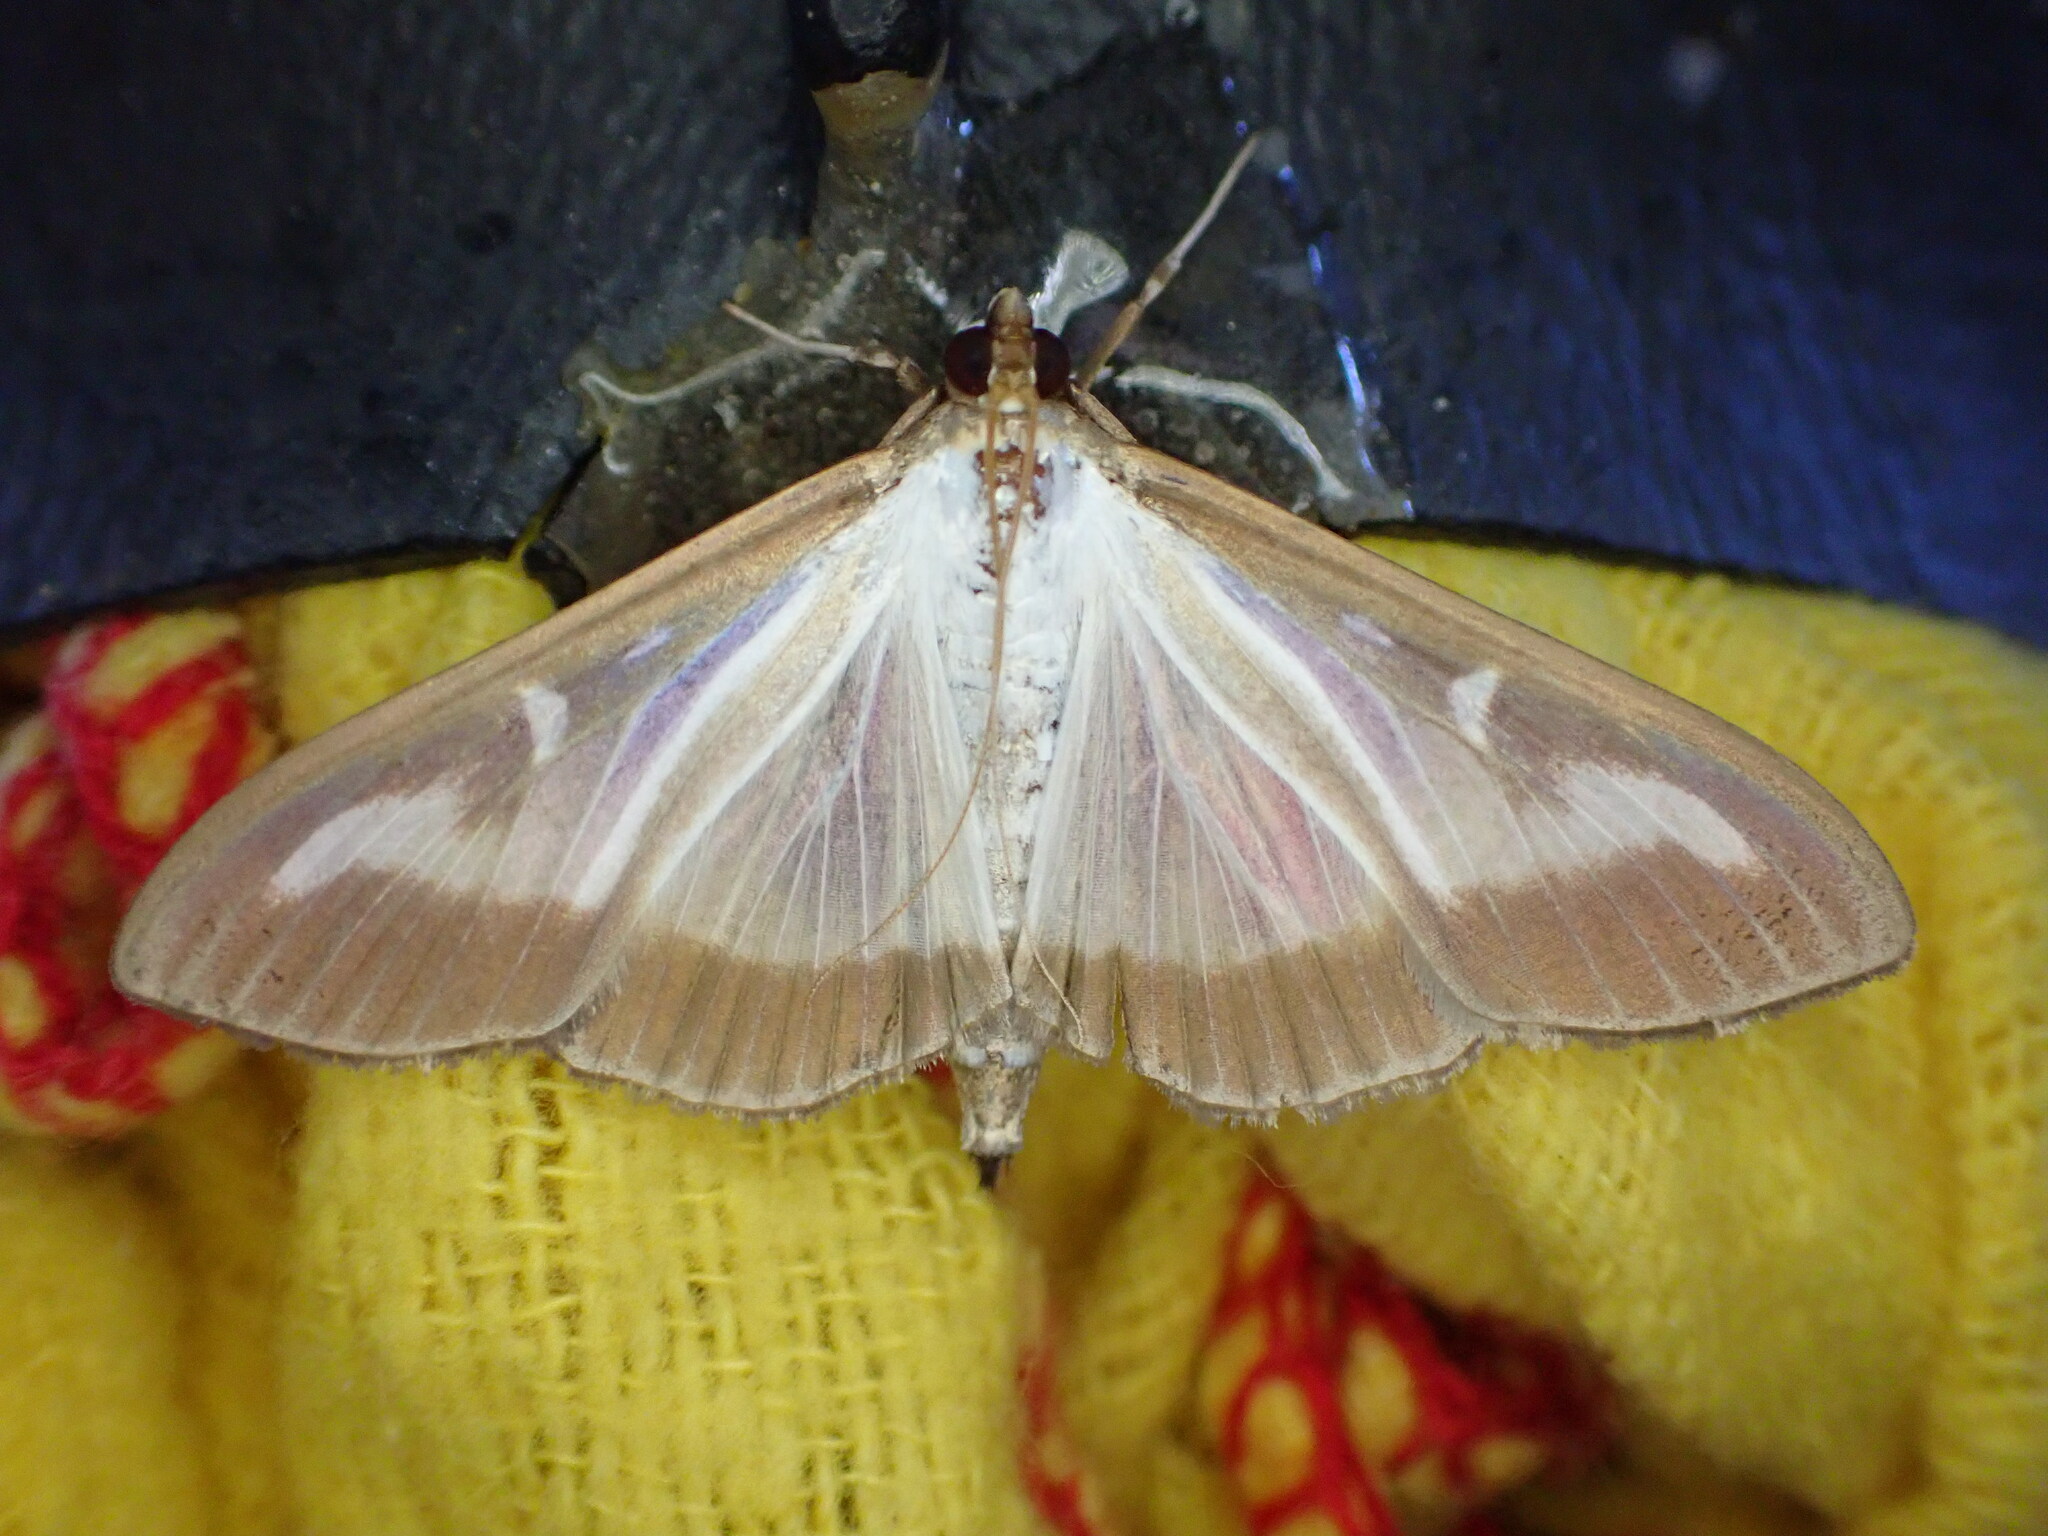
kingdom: Animalia
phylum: Arthropoda
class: Insecta
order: Lepidoptera
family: Crambidae
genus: Cydalima
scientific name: Cydalima perspectalis
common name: Box tree moth
